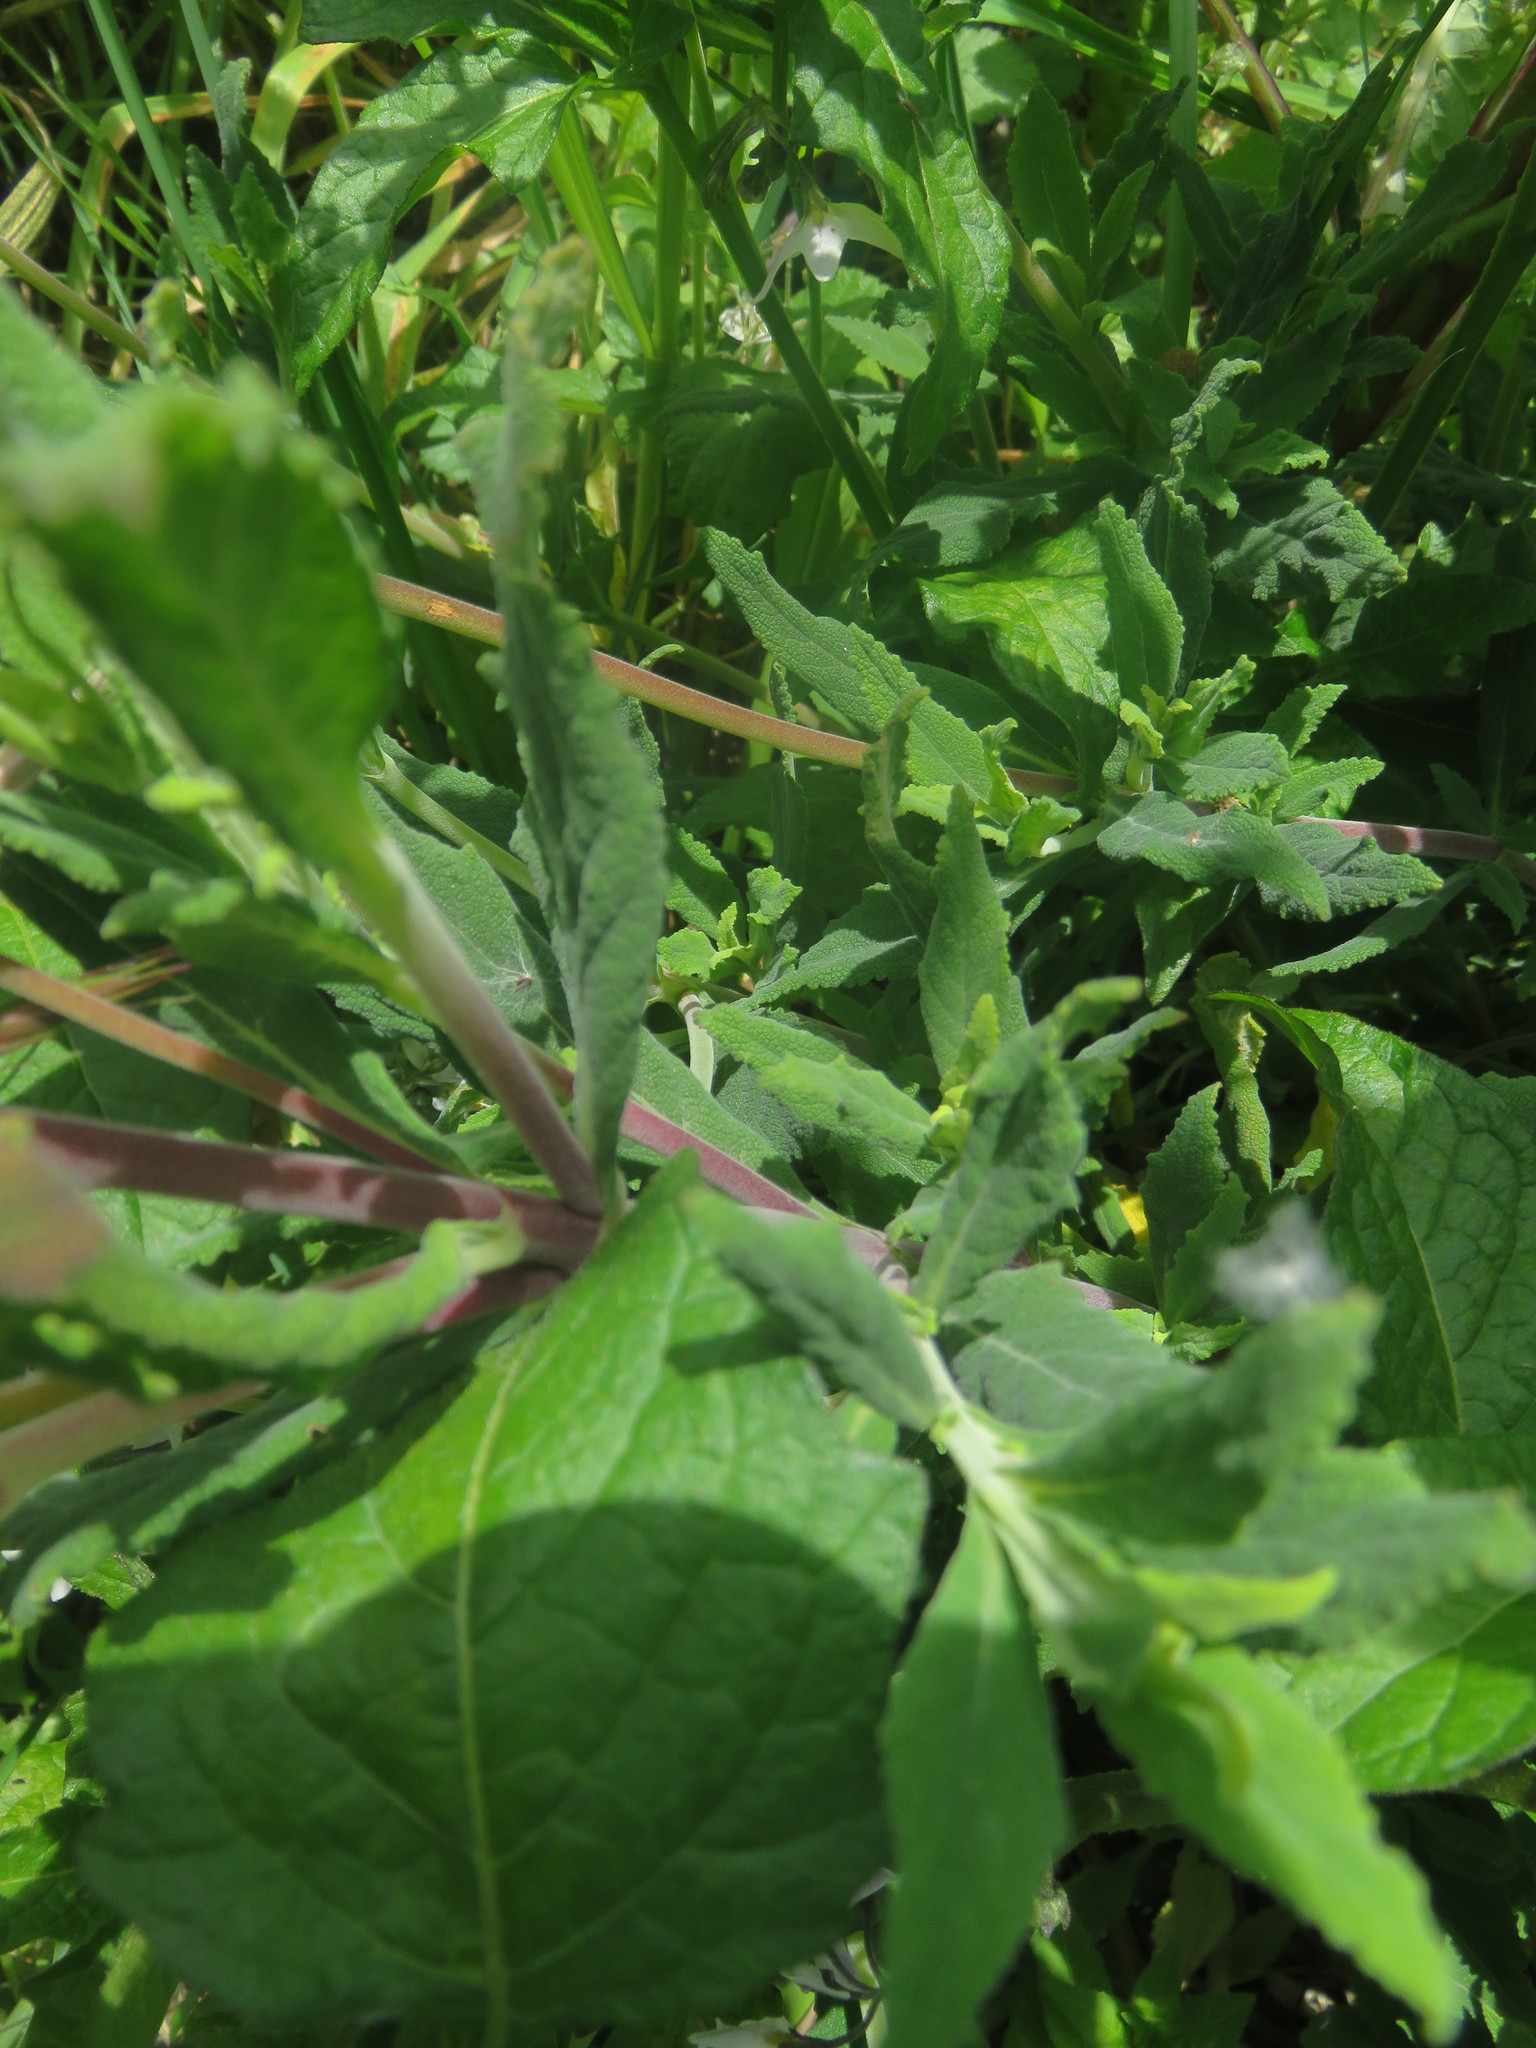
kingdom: Plantae
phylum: Tracheophyta
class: Magnoliopsida
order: Lamiales
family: Calceolariaceae
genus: Calceolaria
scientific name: Calceolaria integrifolia
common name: Bush slipperwort
